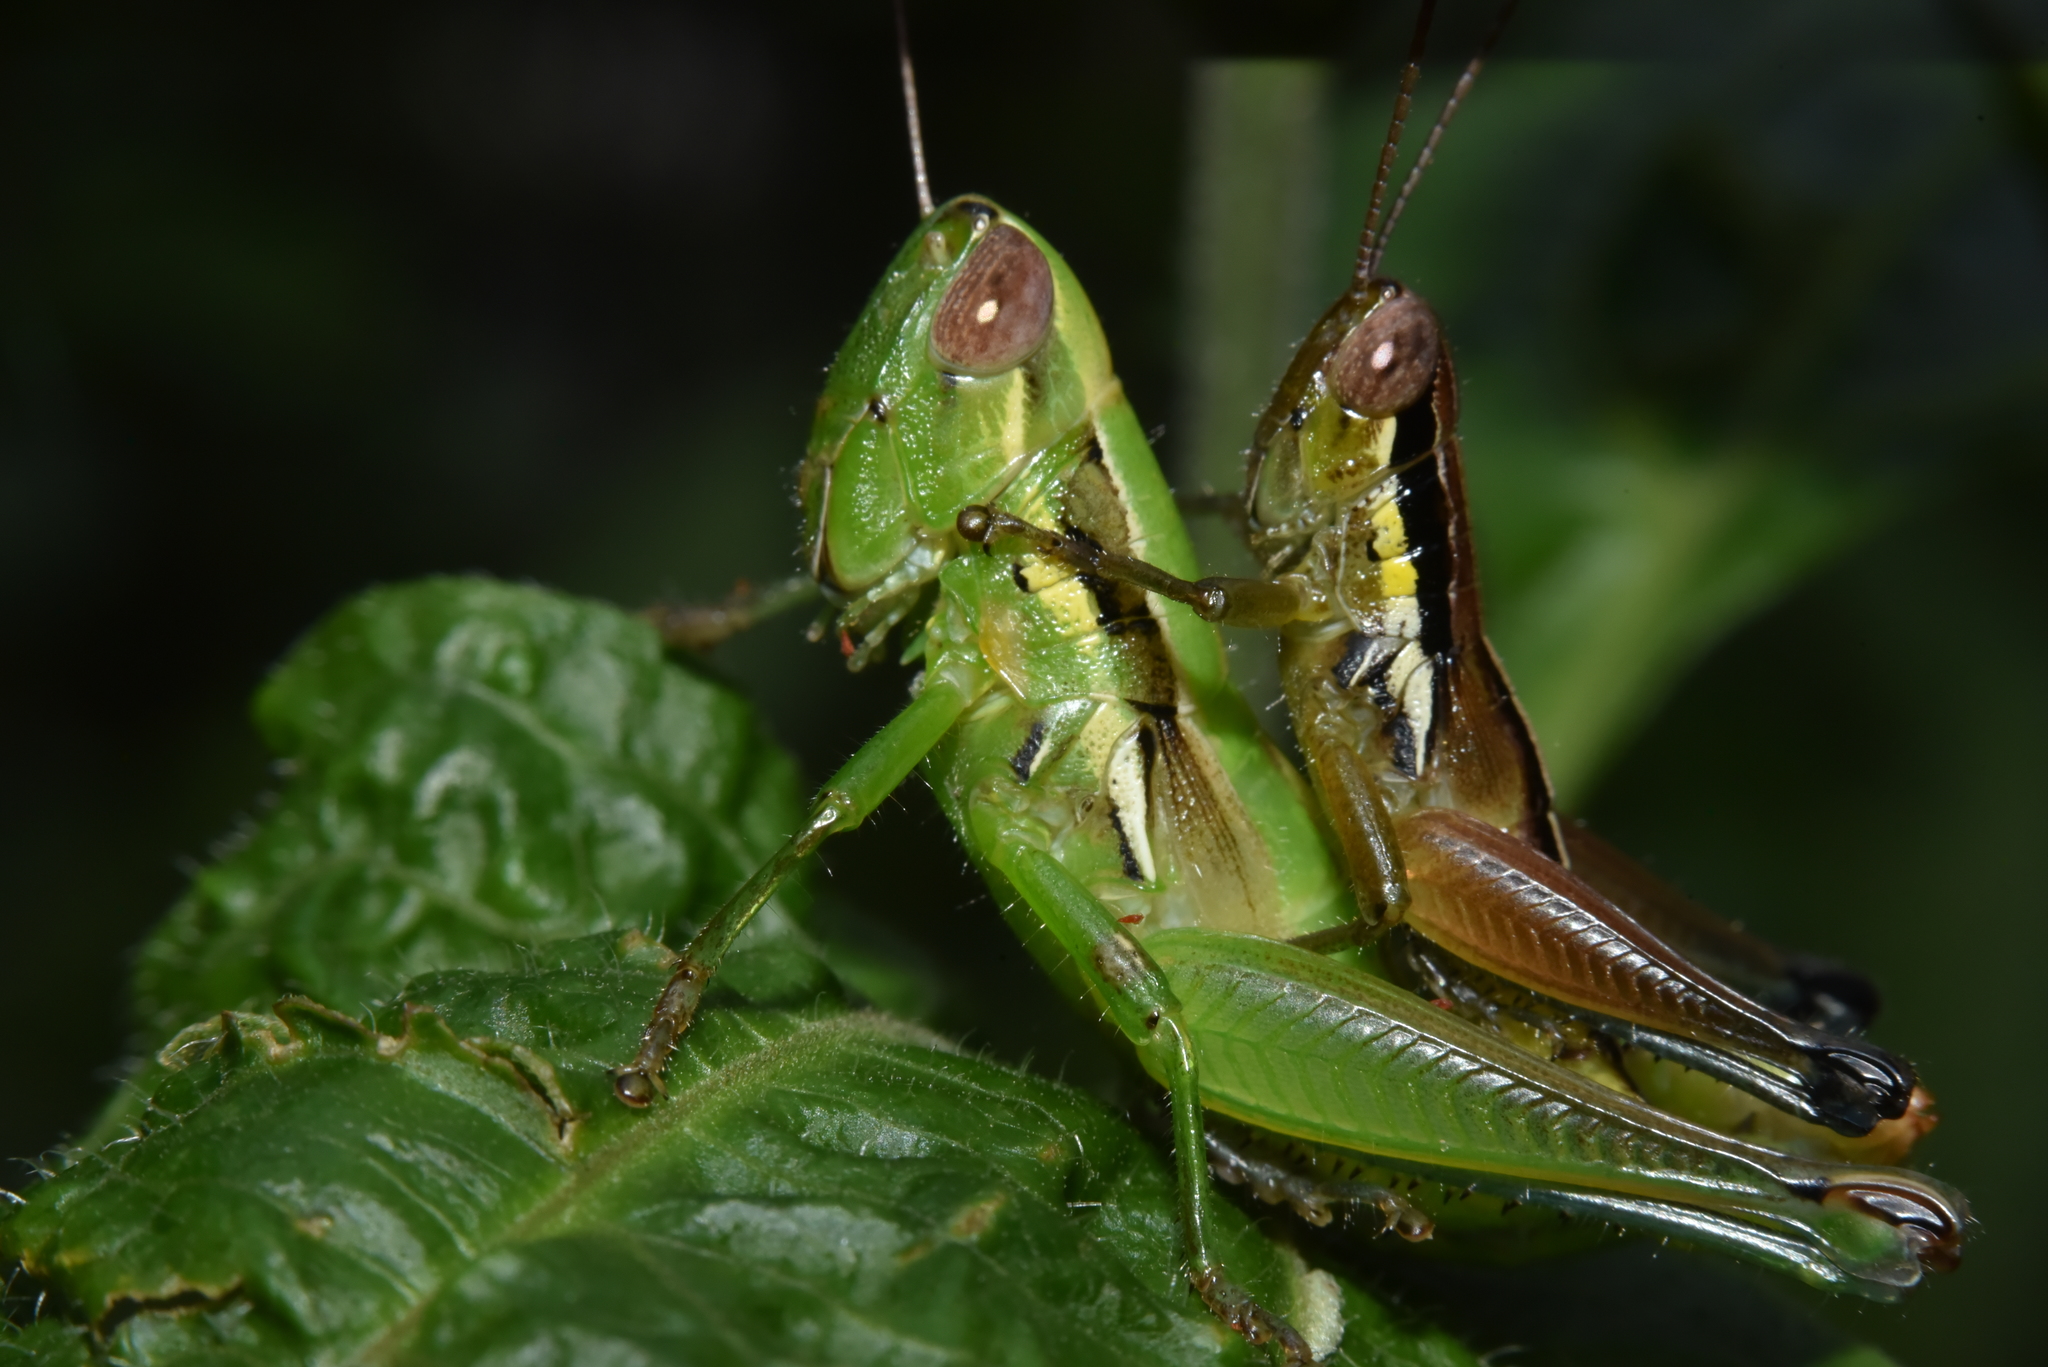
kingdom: Animalia
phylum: Arthropoda
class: Insecta
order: Orthoptera
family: Acrididae
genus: Siruvania
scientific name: Siruvania dimorpha
